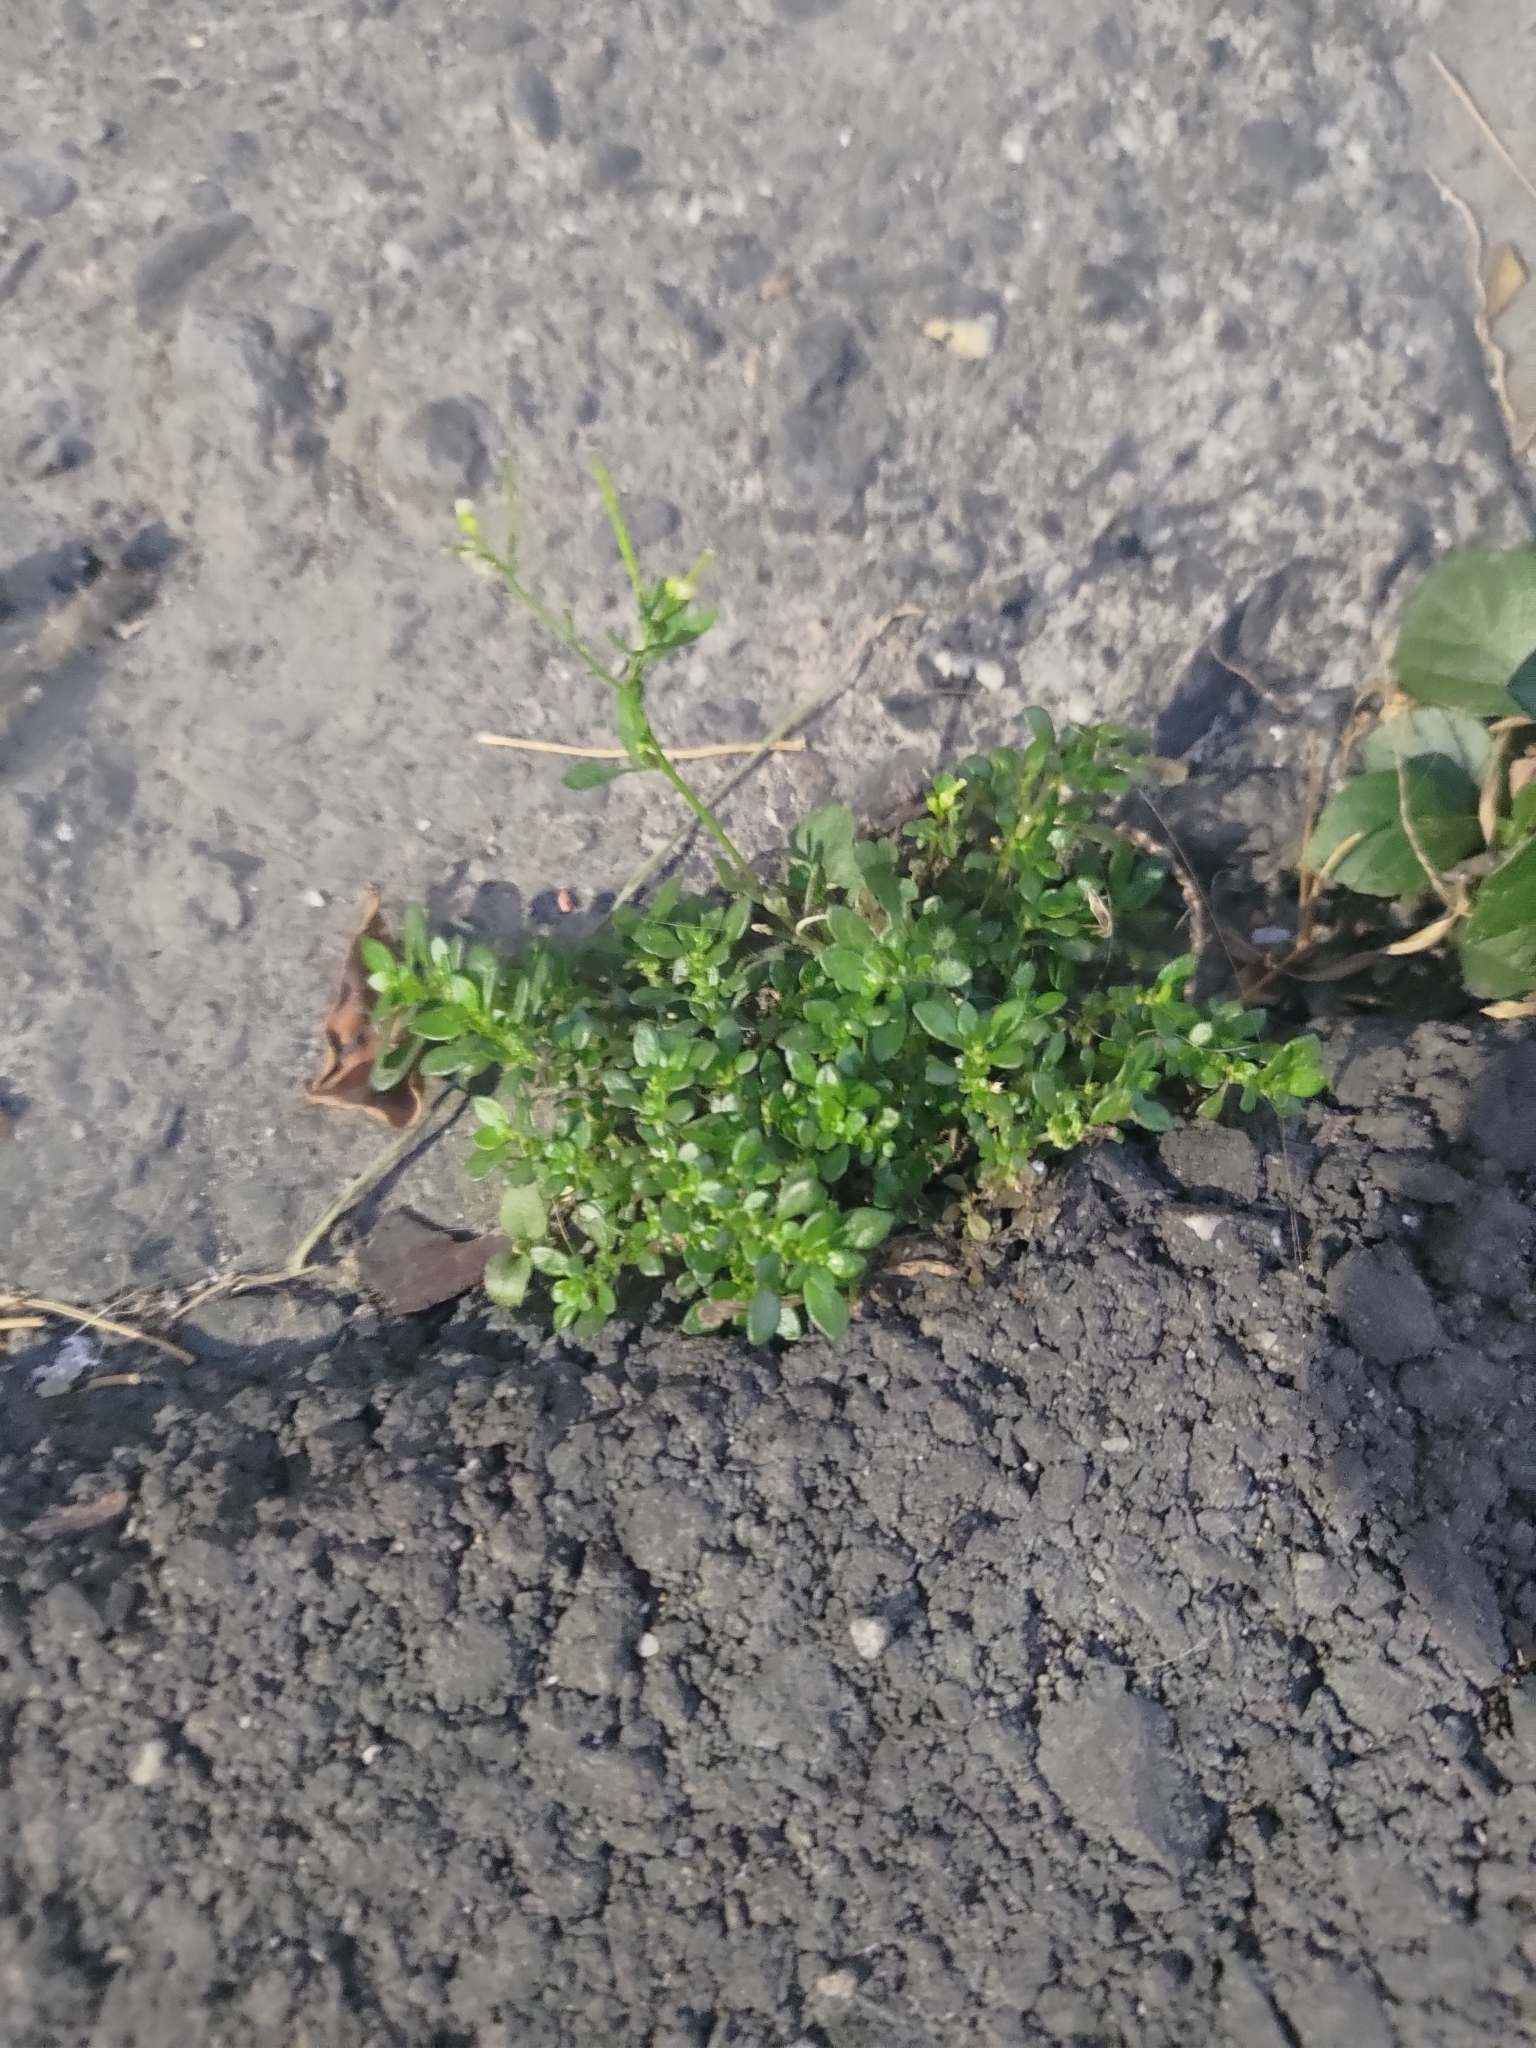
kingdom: Plantae
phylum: Tracheophyta
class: Magnoliopsida
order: Rosales
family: Urticaceae
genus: Pilea
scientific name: Pilea microphylla
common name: Artillery-plant
